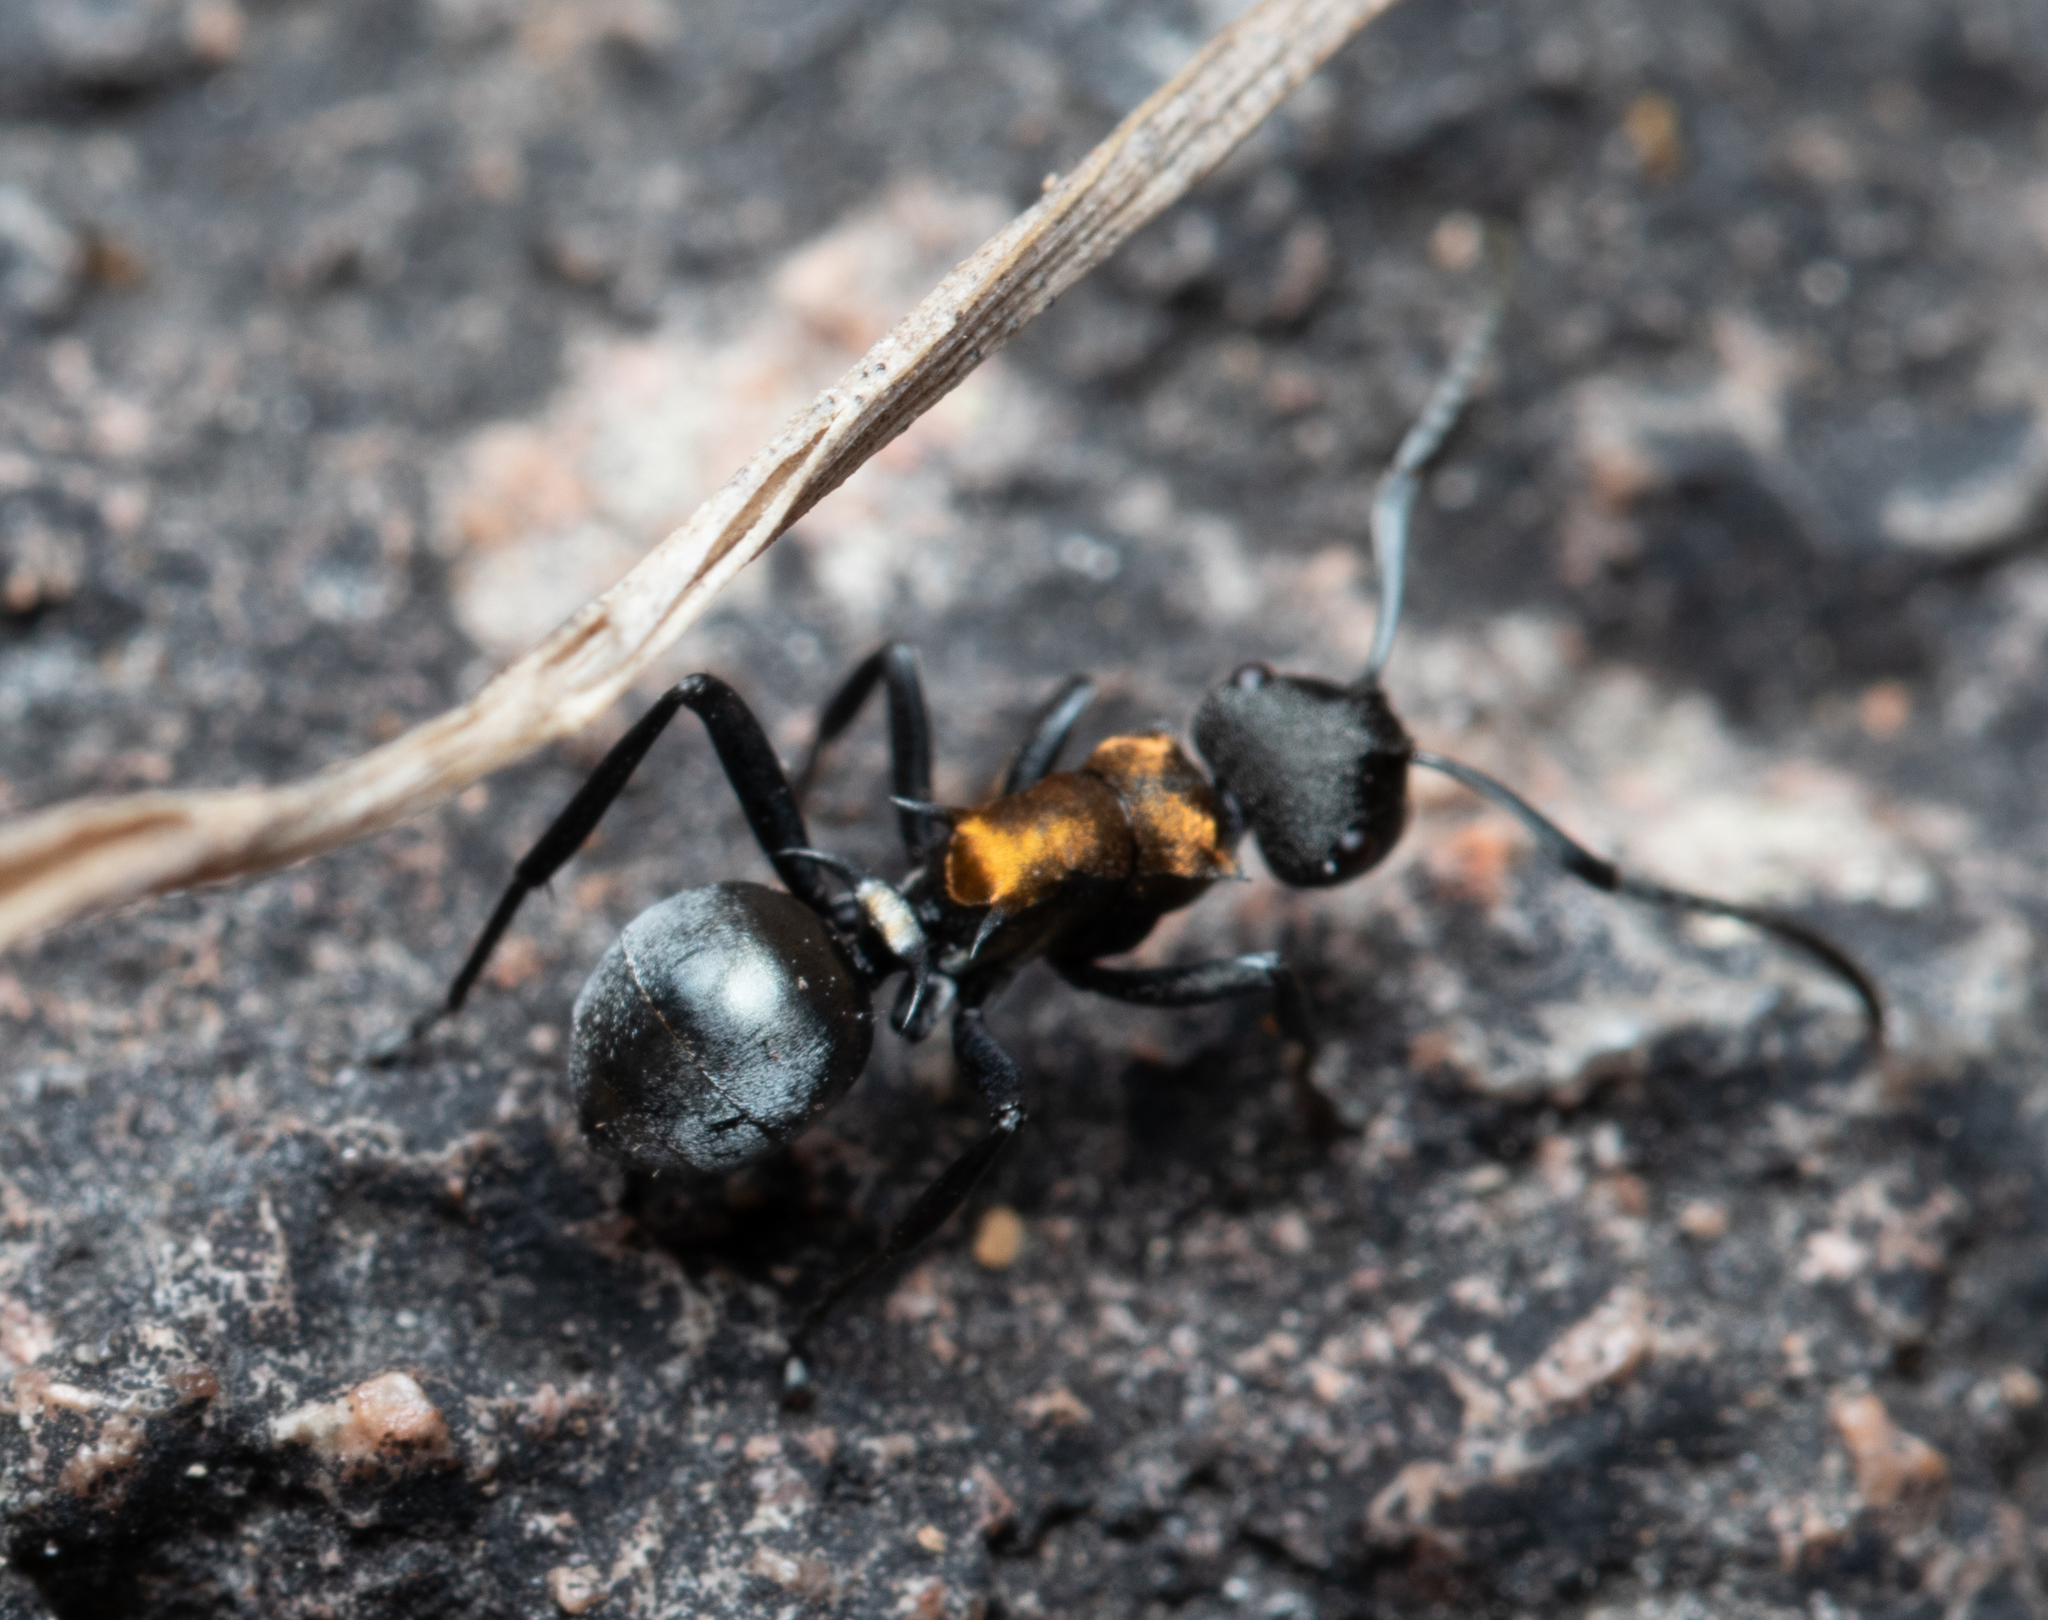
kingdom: Animalia
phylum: Arthropoda
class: Insecta
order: Hymenoptera
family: Formicidae
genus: Polyrhachis
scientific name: Polyrhachis ornata
